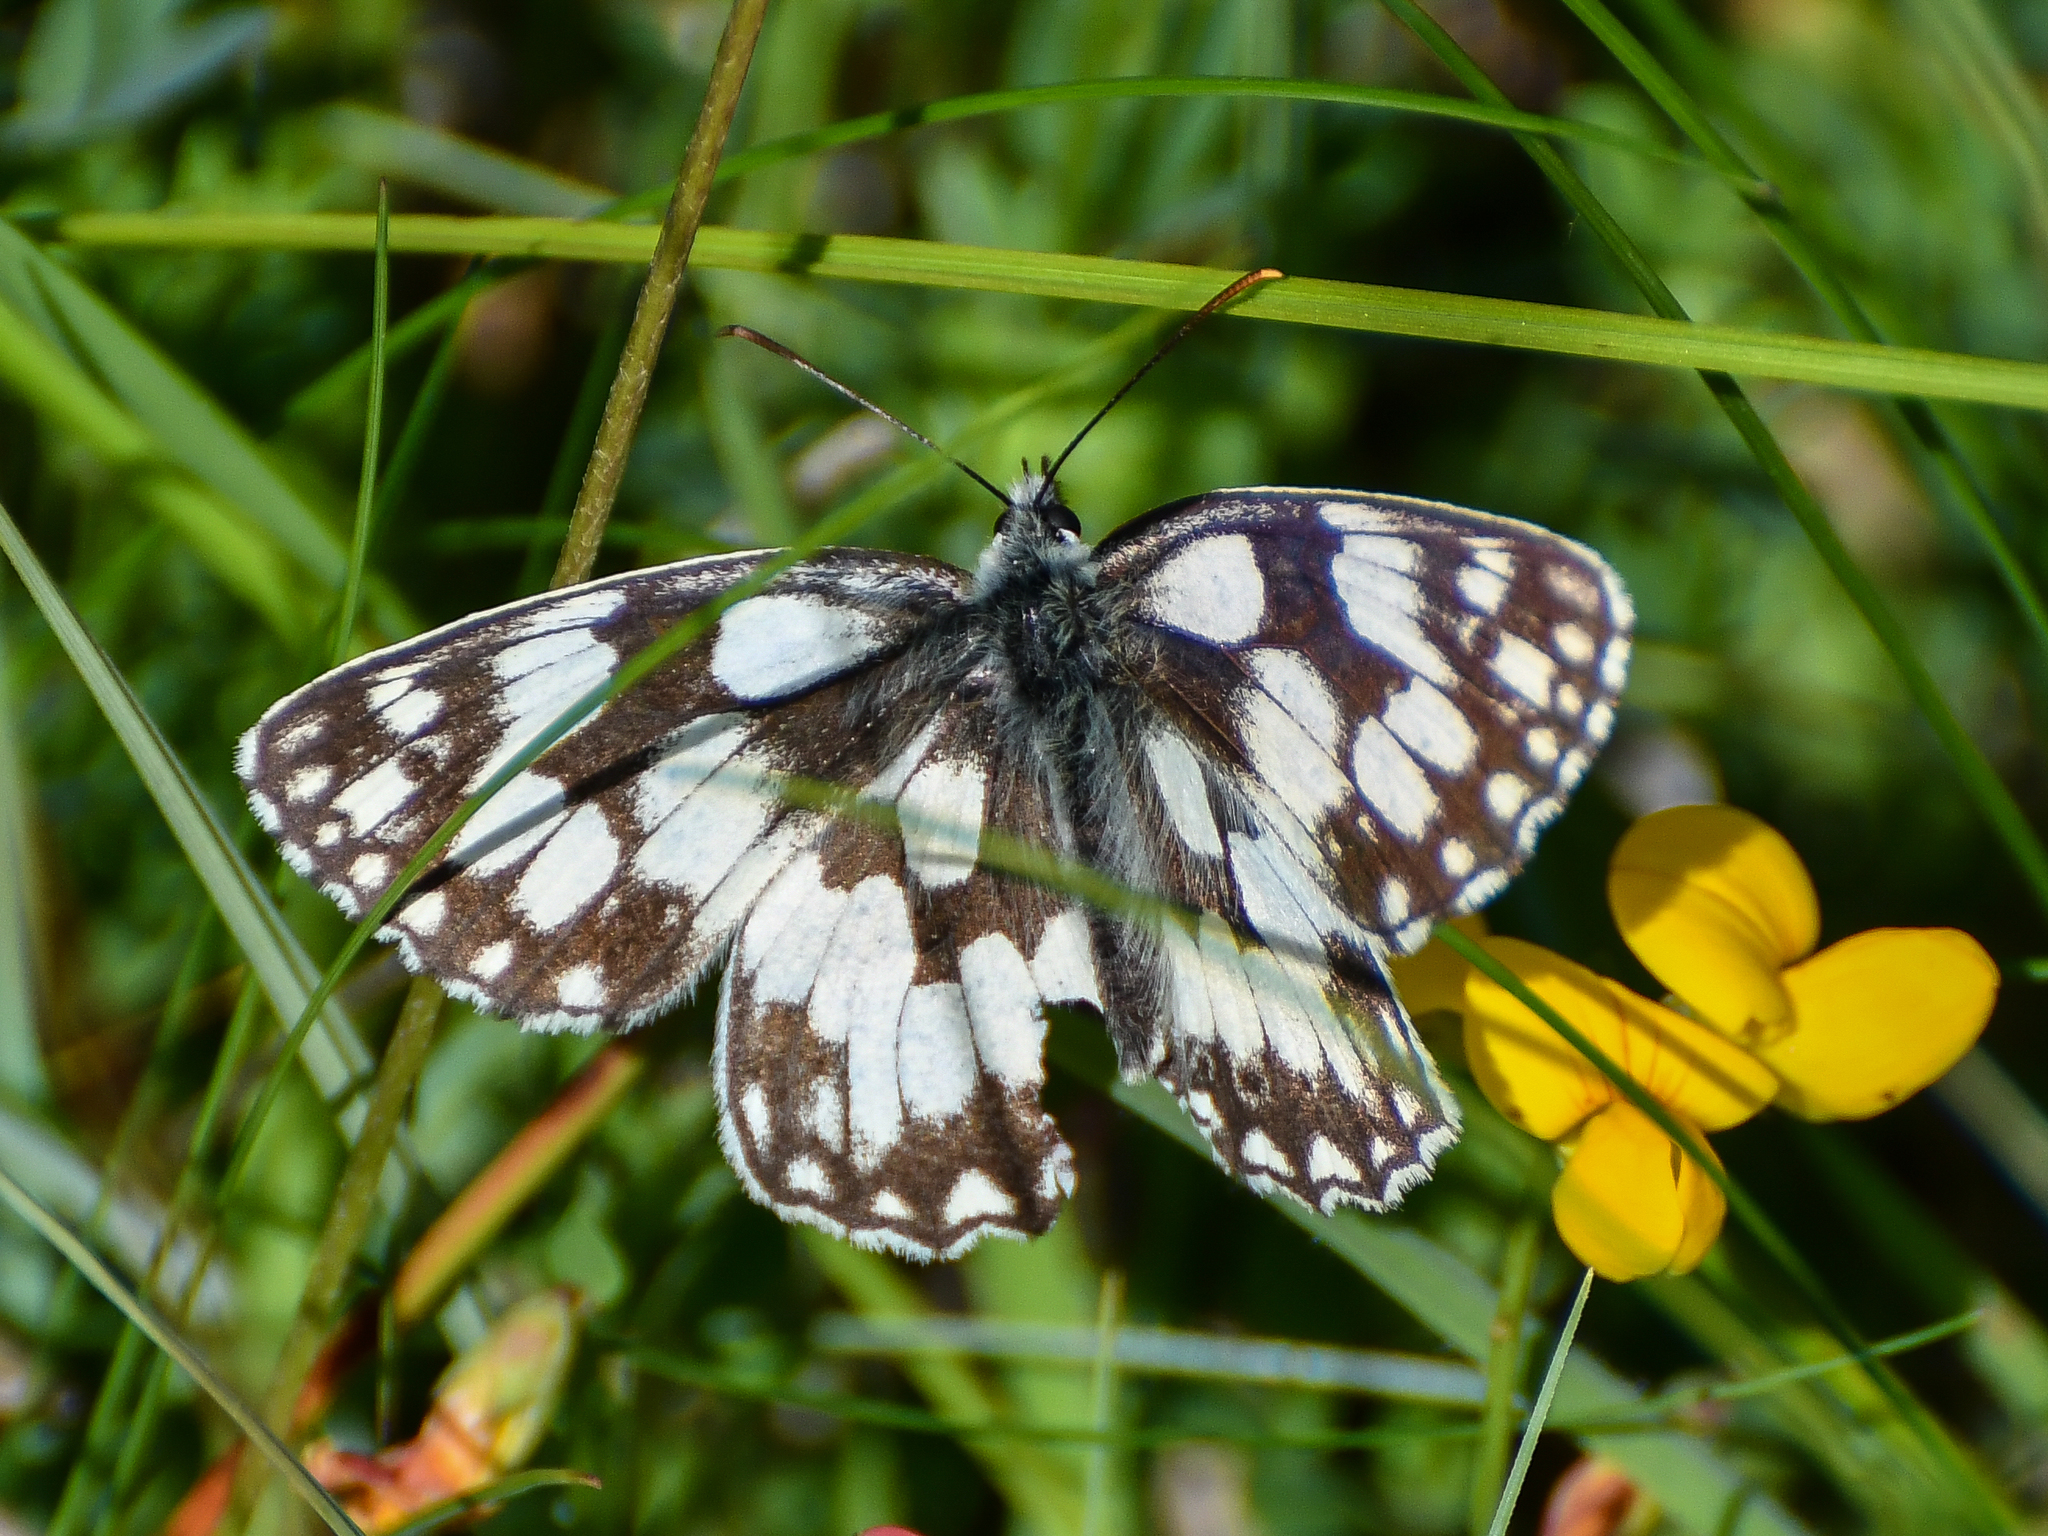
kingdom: Animalia
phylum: Arthropoda
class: Insecta
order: Lepidoptera
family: Nymphalidae
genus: Melanargia
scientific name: Melanargia galathea
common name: Marbled white
